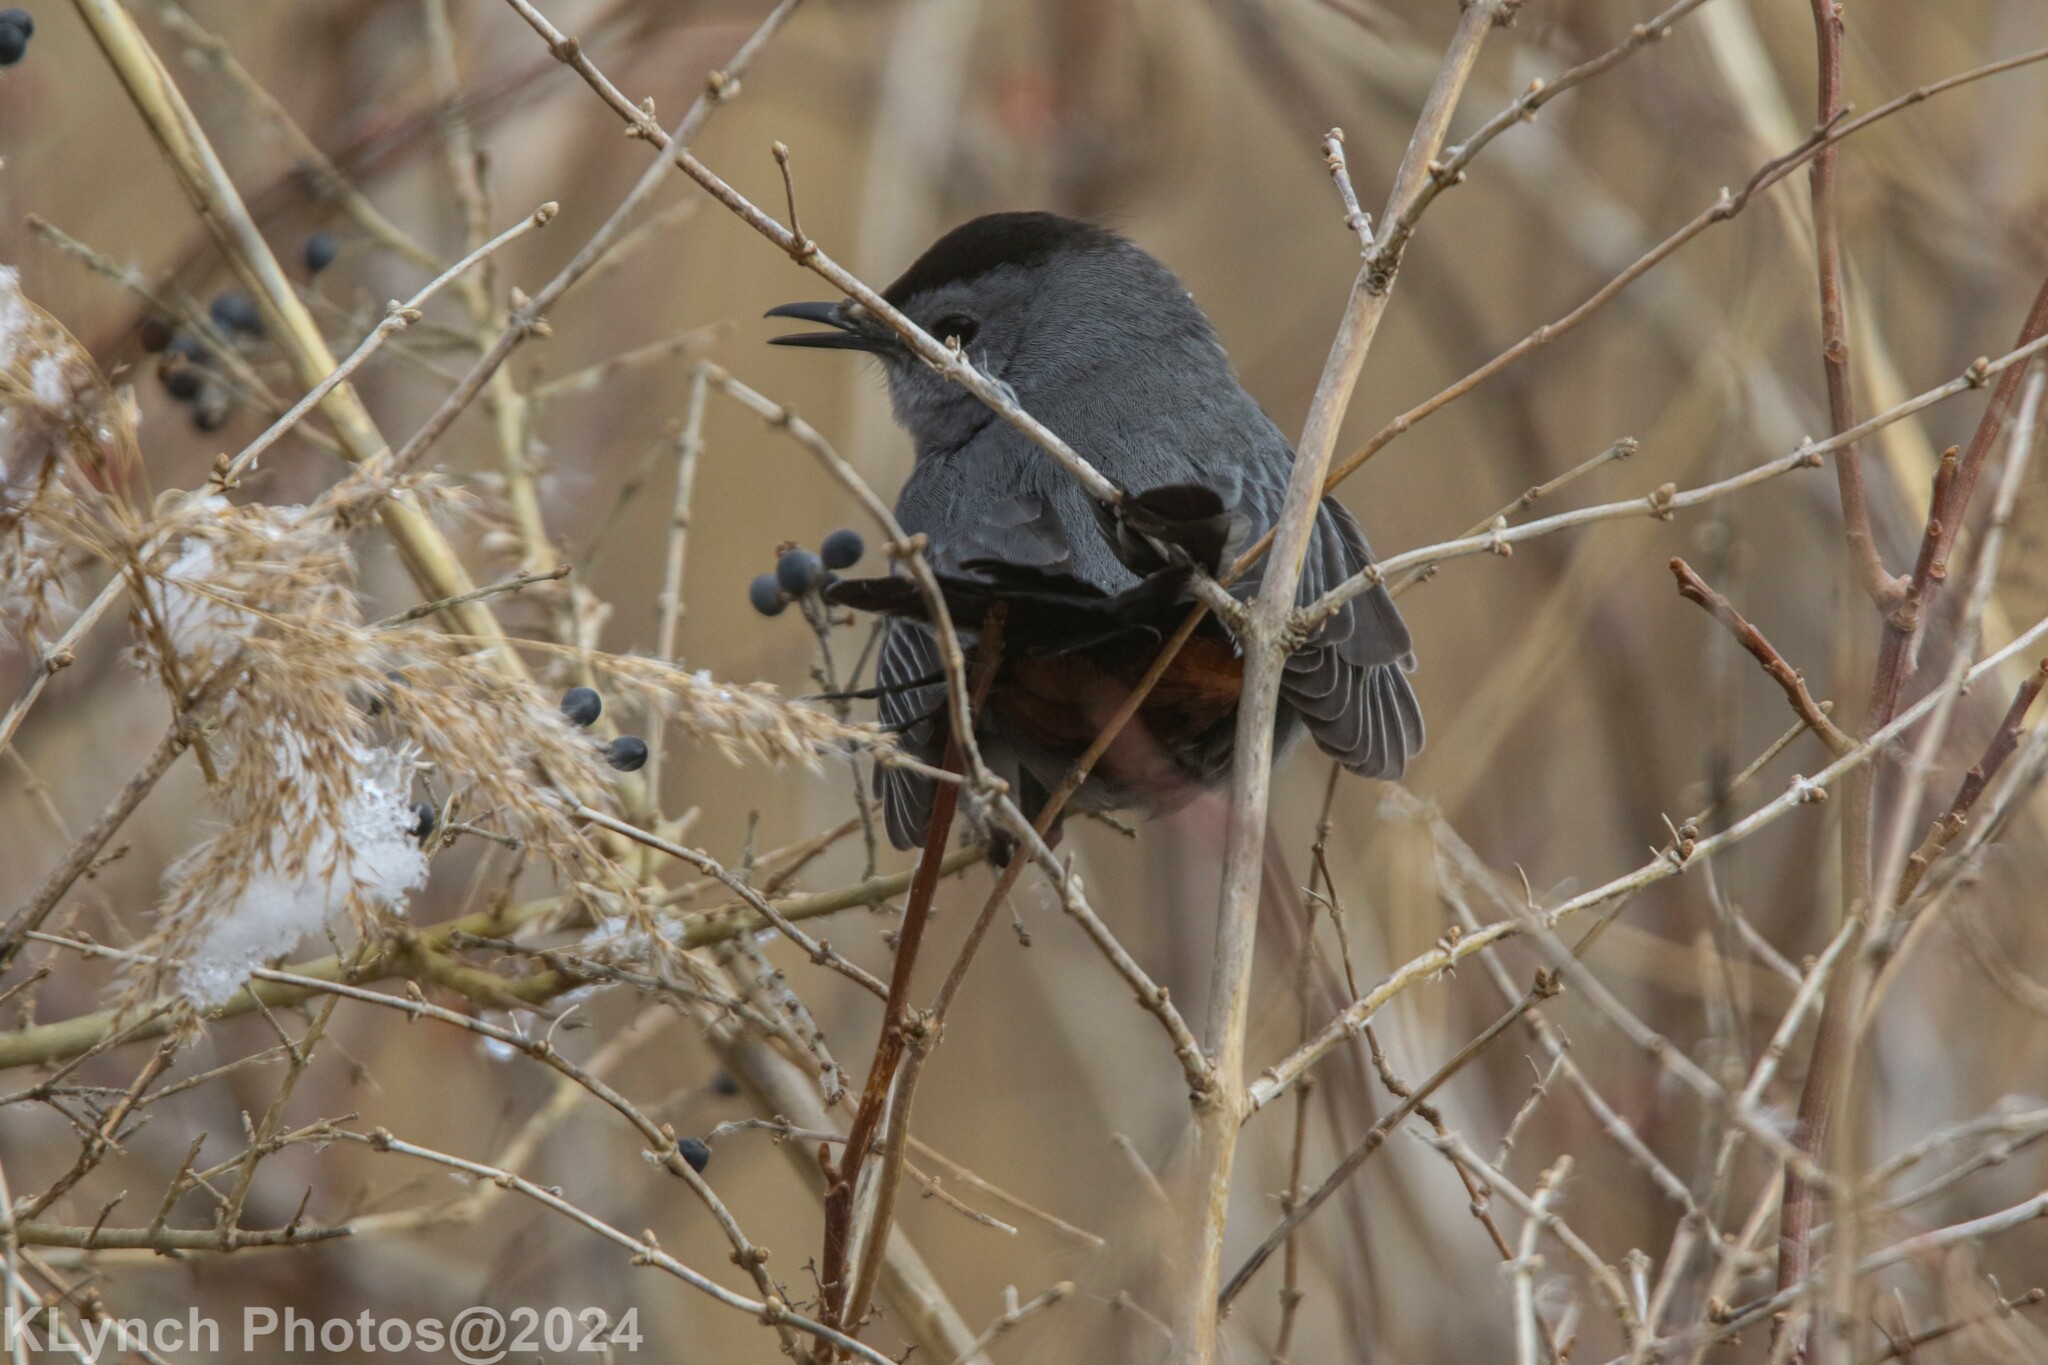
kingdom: Animalia
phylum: Chordata
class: Aves
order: Passeriformes
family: Mimidae
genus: Dumetella
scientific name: Dumetella carolinensis
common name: Gray catbird
